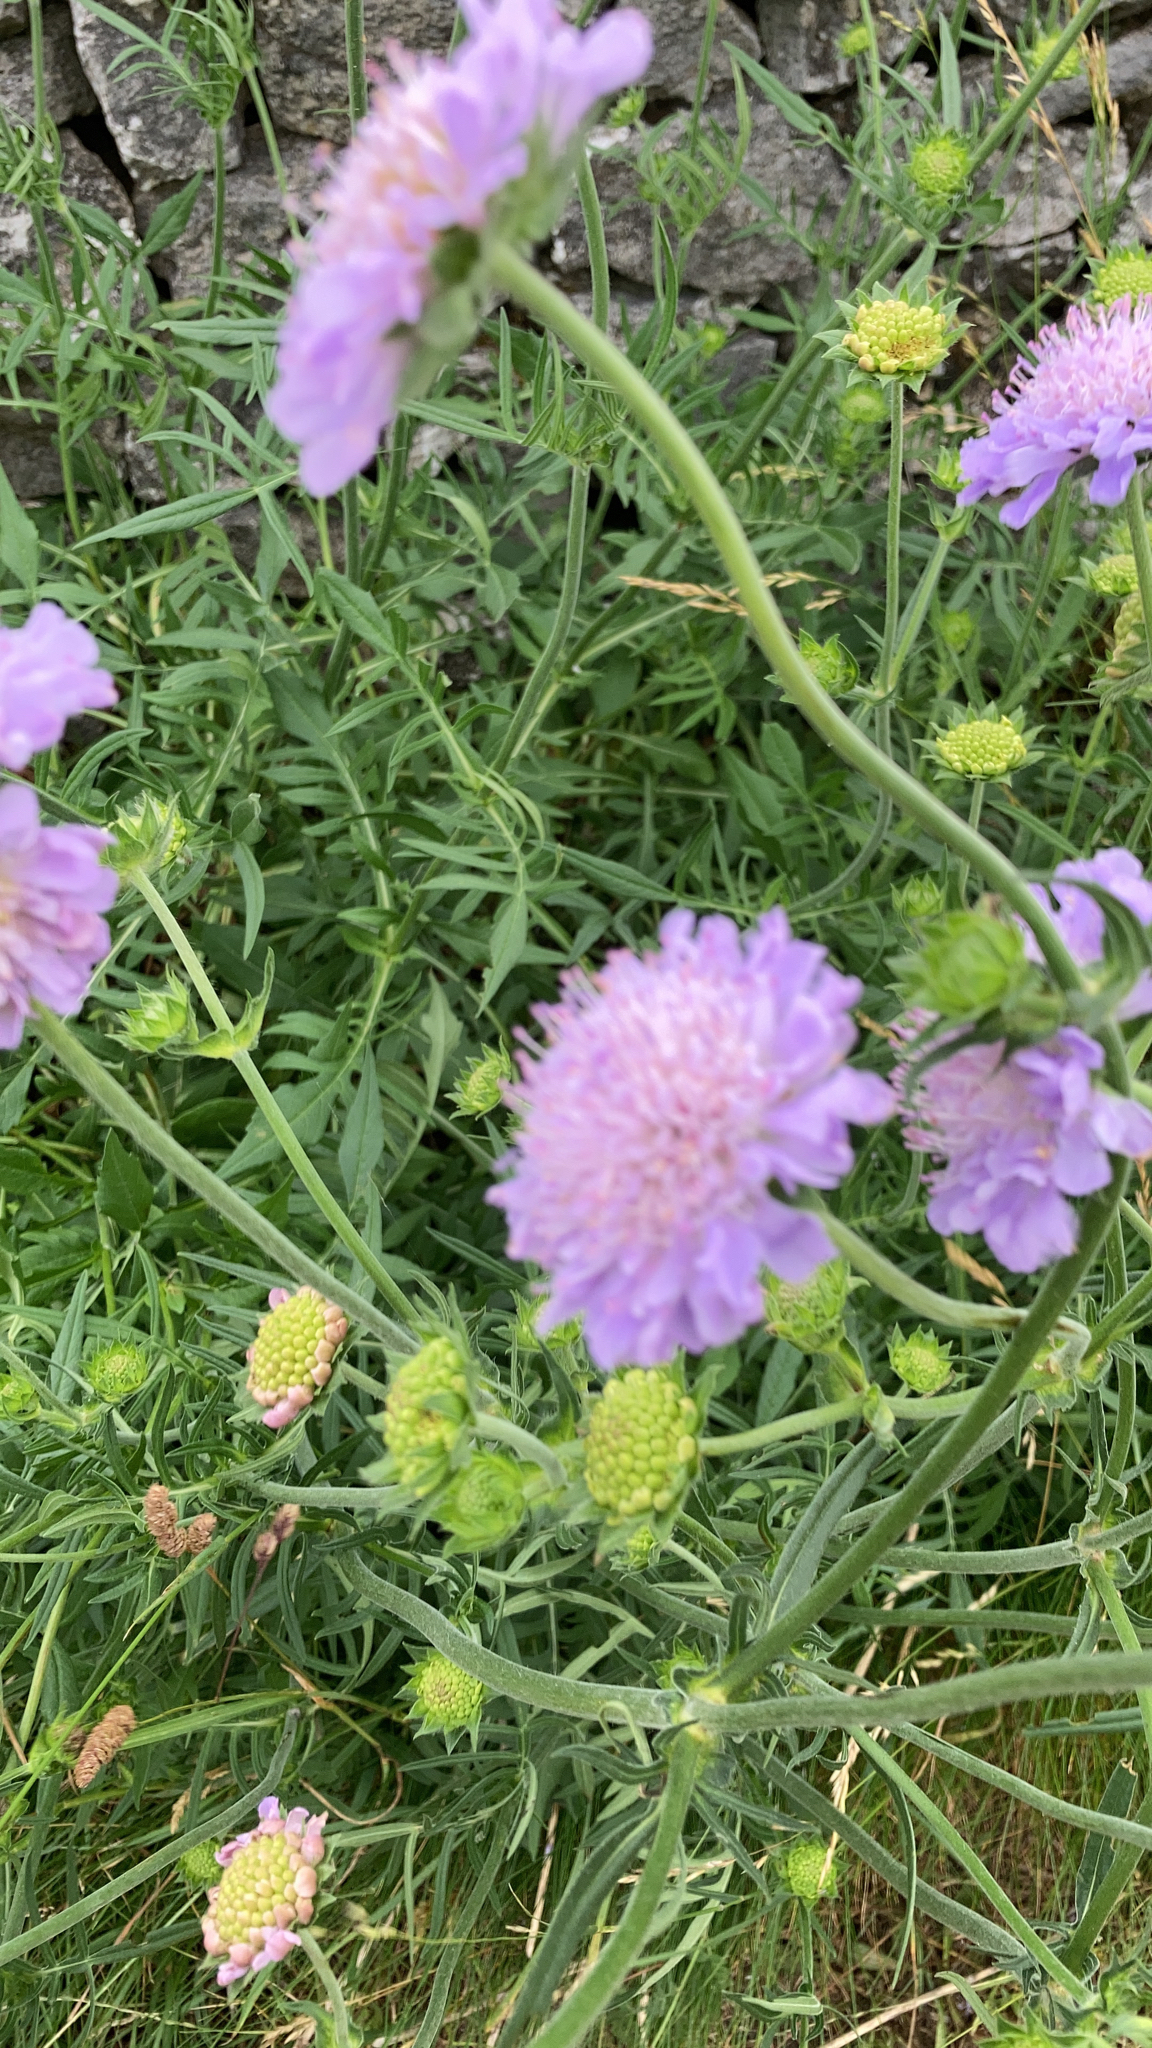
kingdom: Plantae
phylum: Tracheophyta
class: Magnoliopsida
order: Dipsacales
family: Caprifoliaceae
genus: Knautia
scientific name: Knautia arvensis
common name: Field scabiosa
